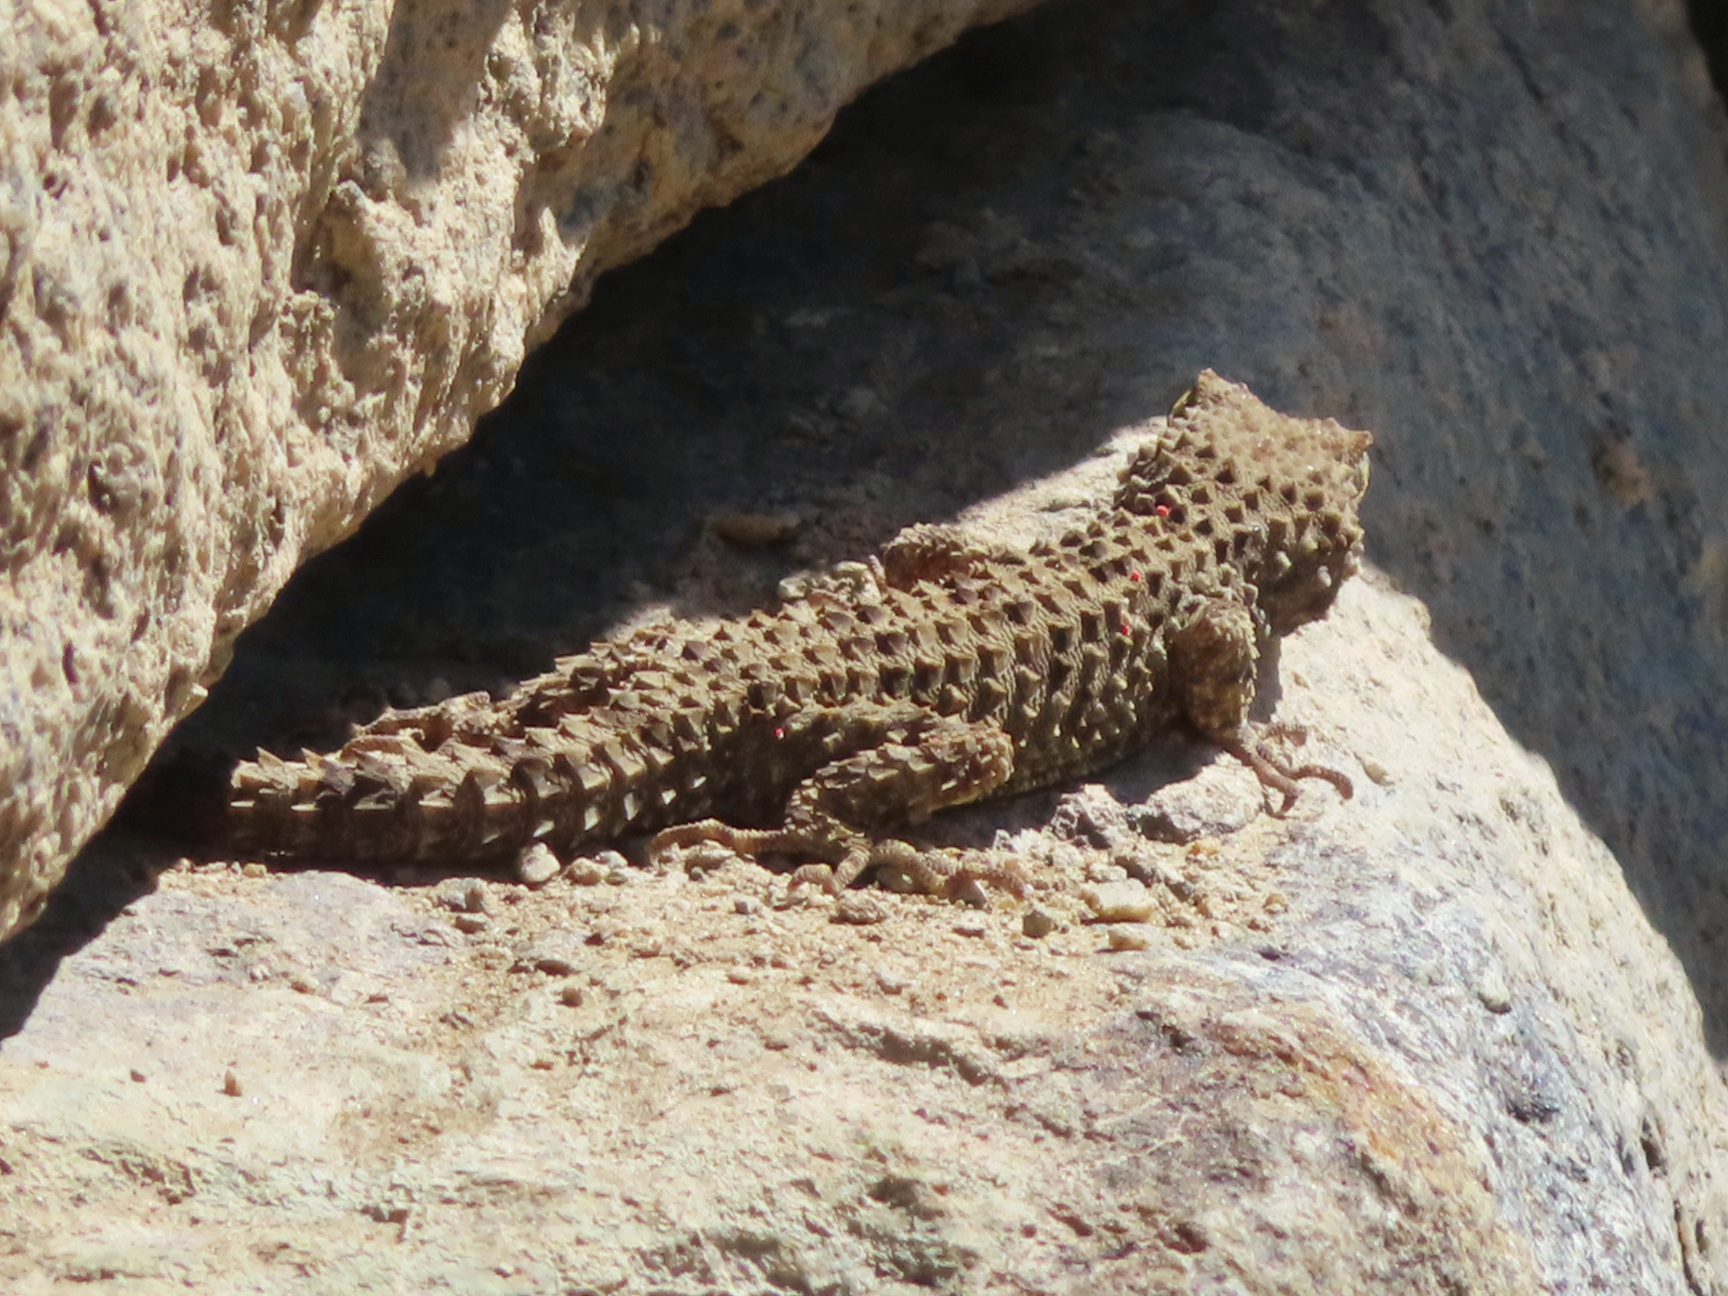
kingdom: Animalia
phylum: Chordata
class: Squamata
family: Gekkonidae
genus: Tenuidactylus
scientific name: Tenuidactylus caspius
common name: Caspian bent-toed gecko
